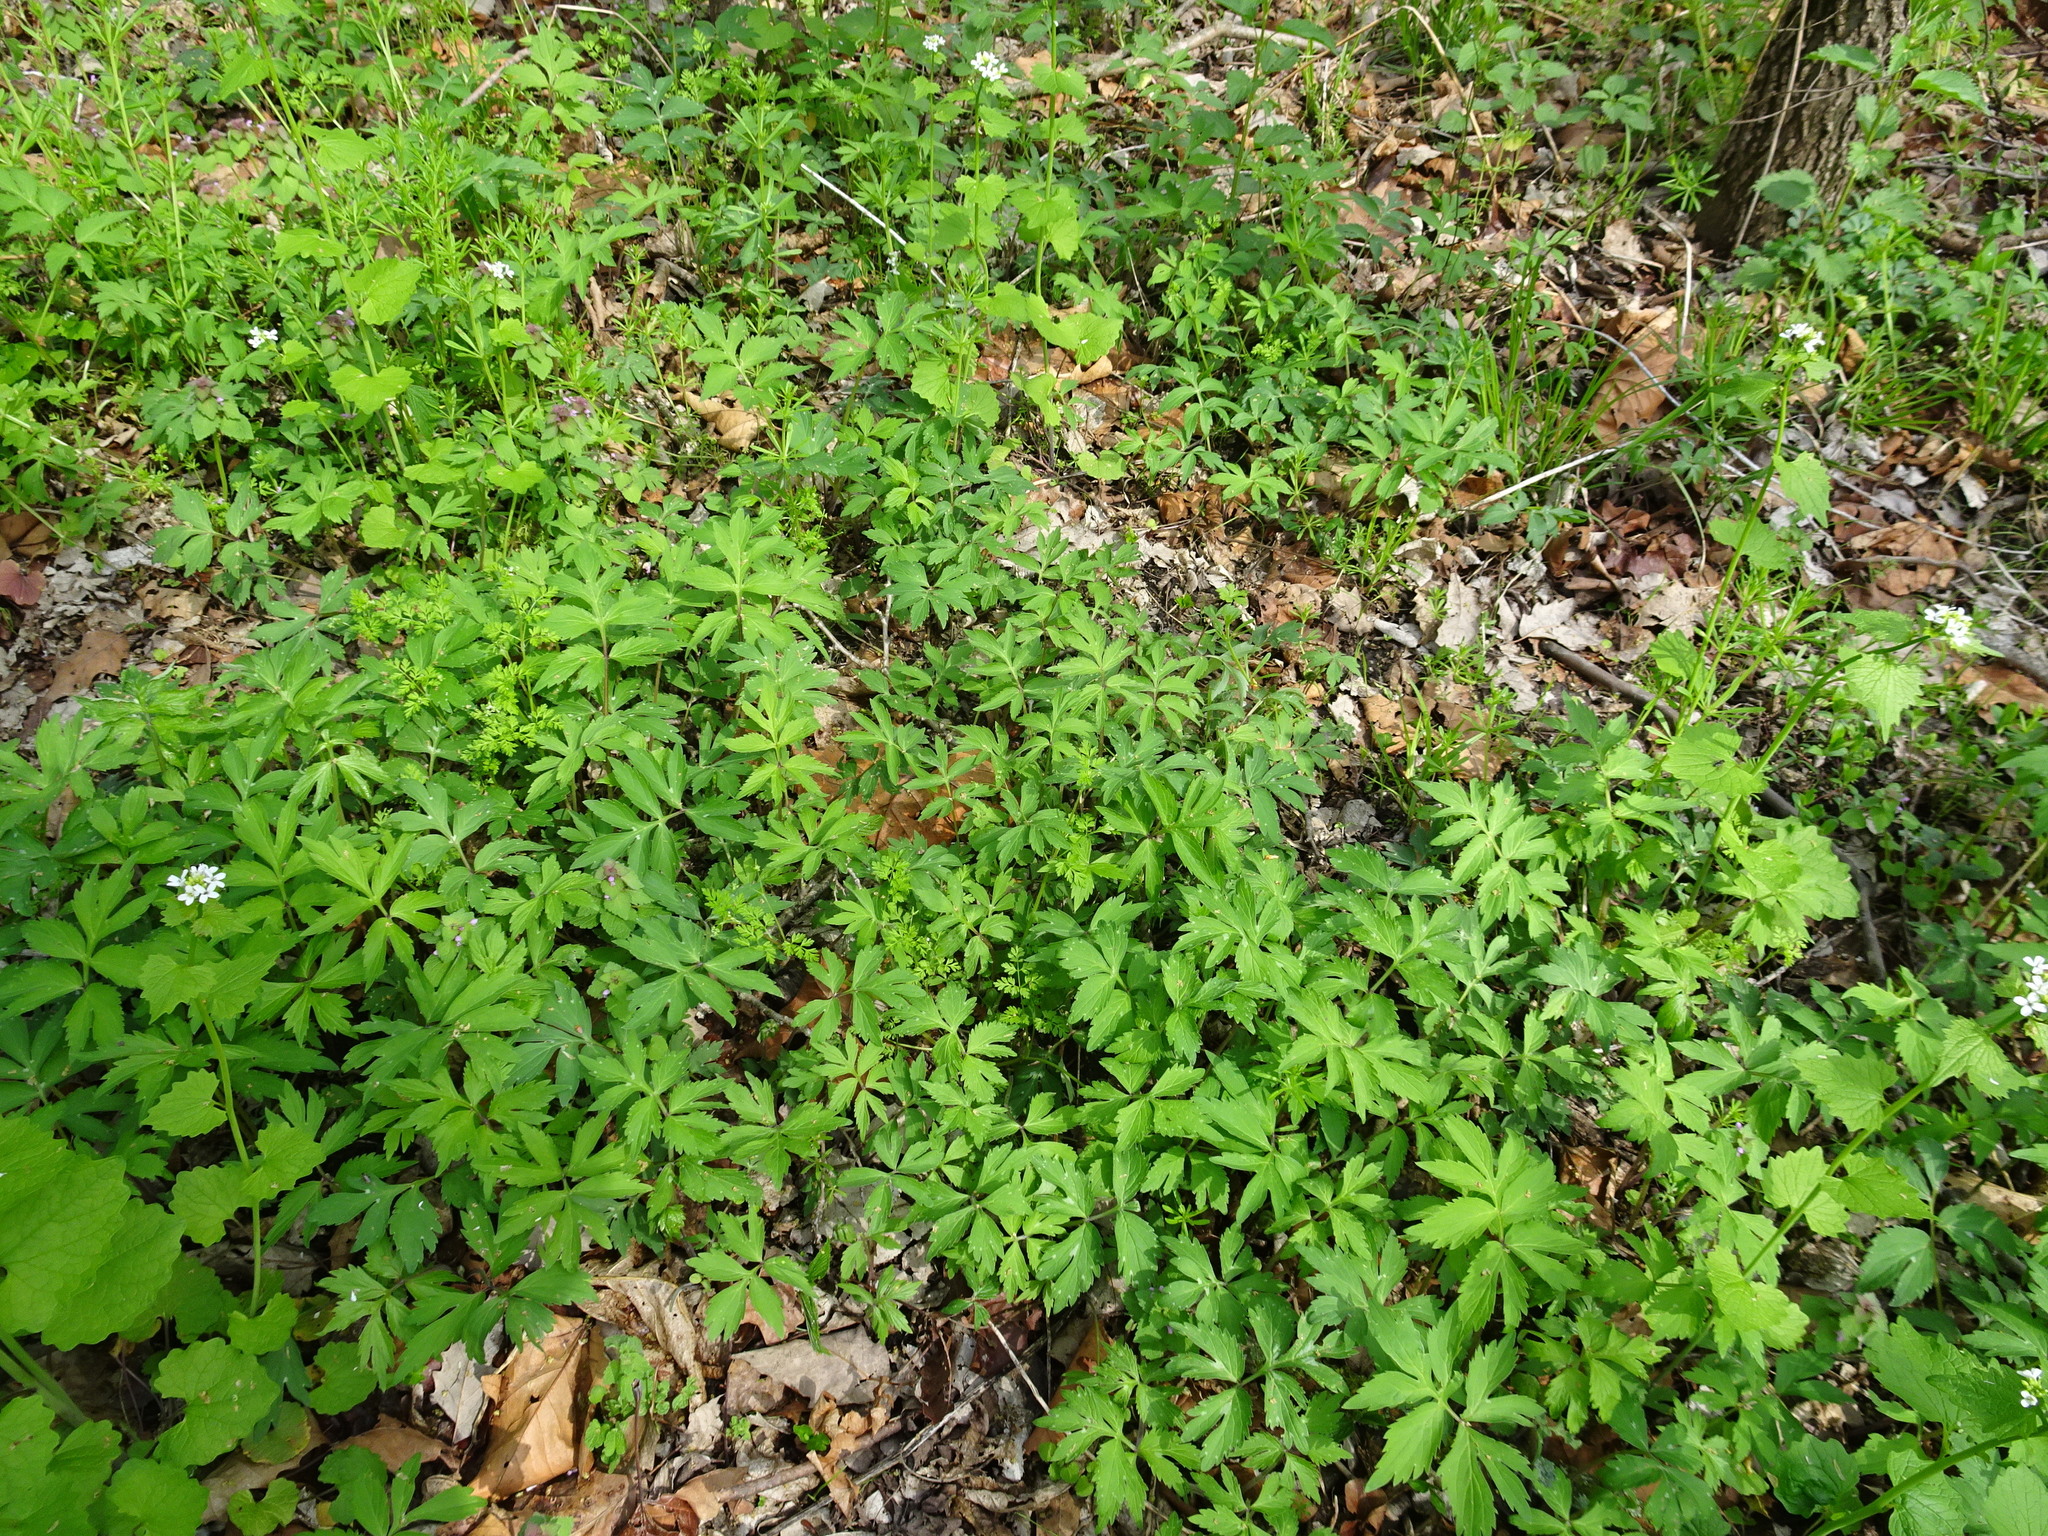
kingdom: Plantae
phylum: Tracheophyta
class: Magnoliopsida
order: Boraginales
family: Hydrophyllaceae
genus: Hydrophyllum
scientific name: Hydrophyllum virginianum
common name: Virginia waterleaf
